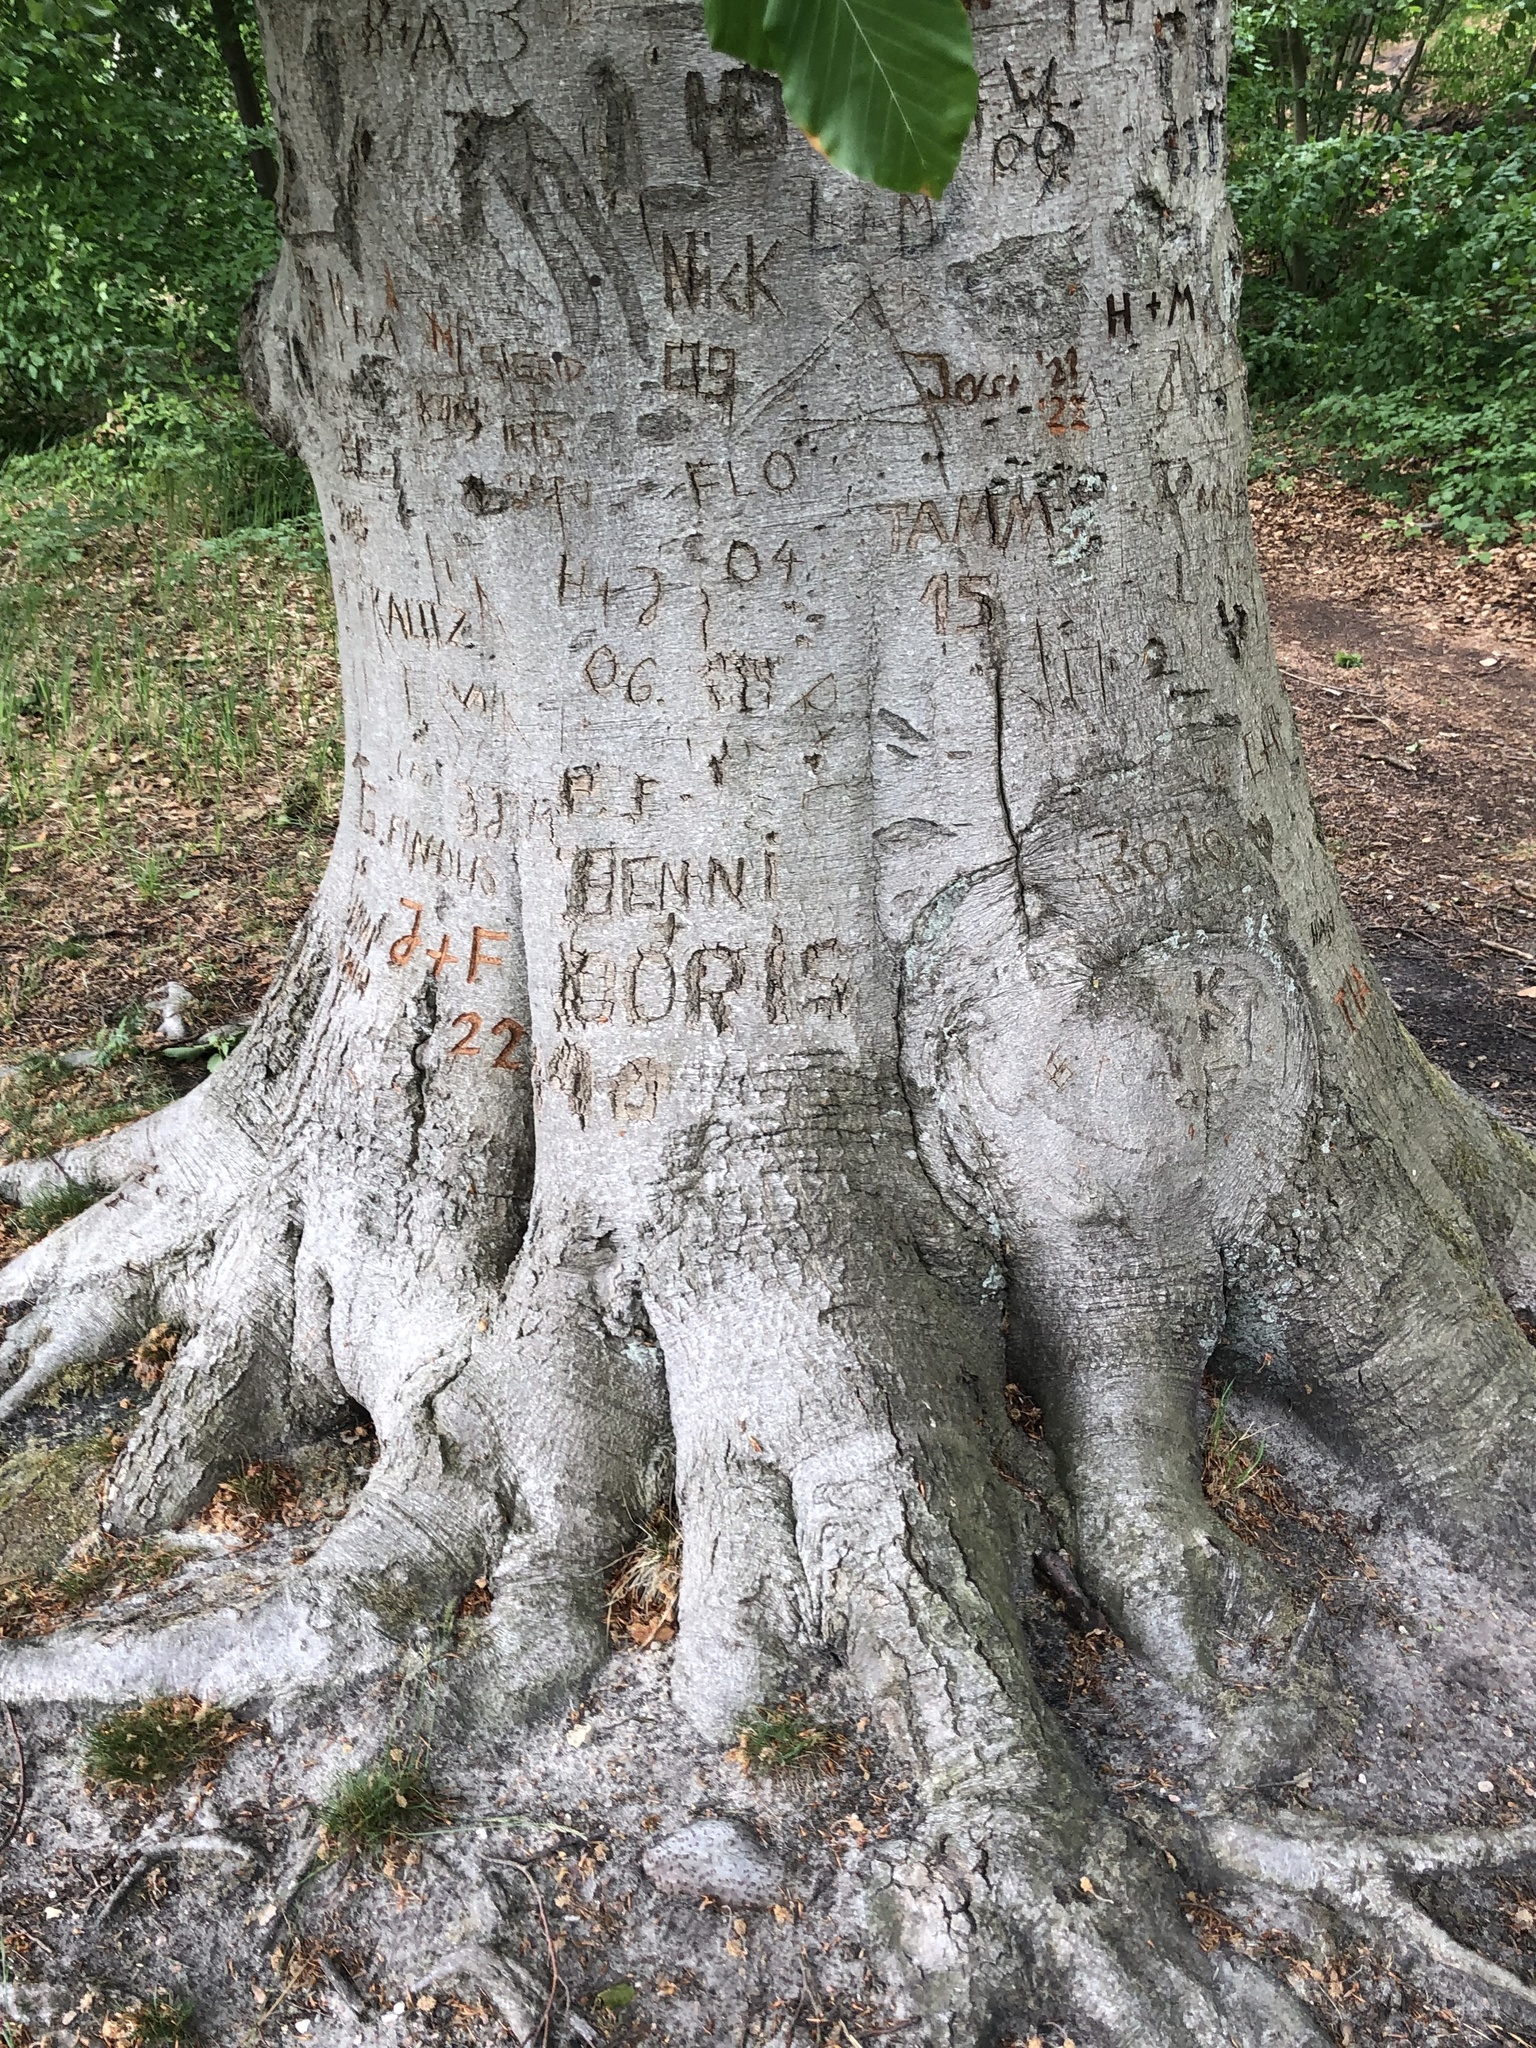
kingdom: Plantae
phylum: Tracheophyta
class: Magnoliopsida
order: Fagales
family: Fagaceae
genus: Fagus
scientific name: Fagus sylvatica
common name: Beech
